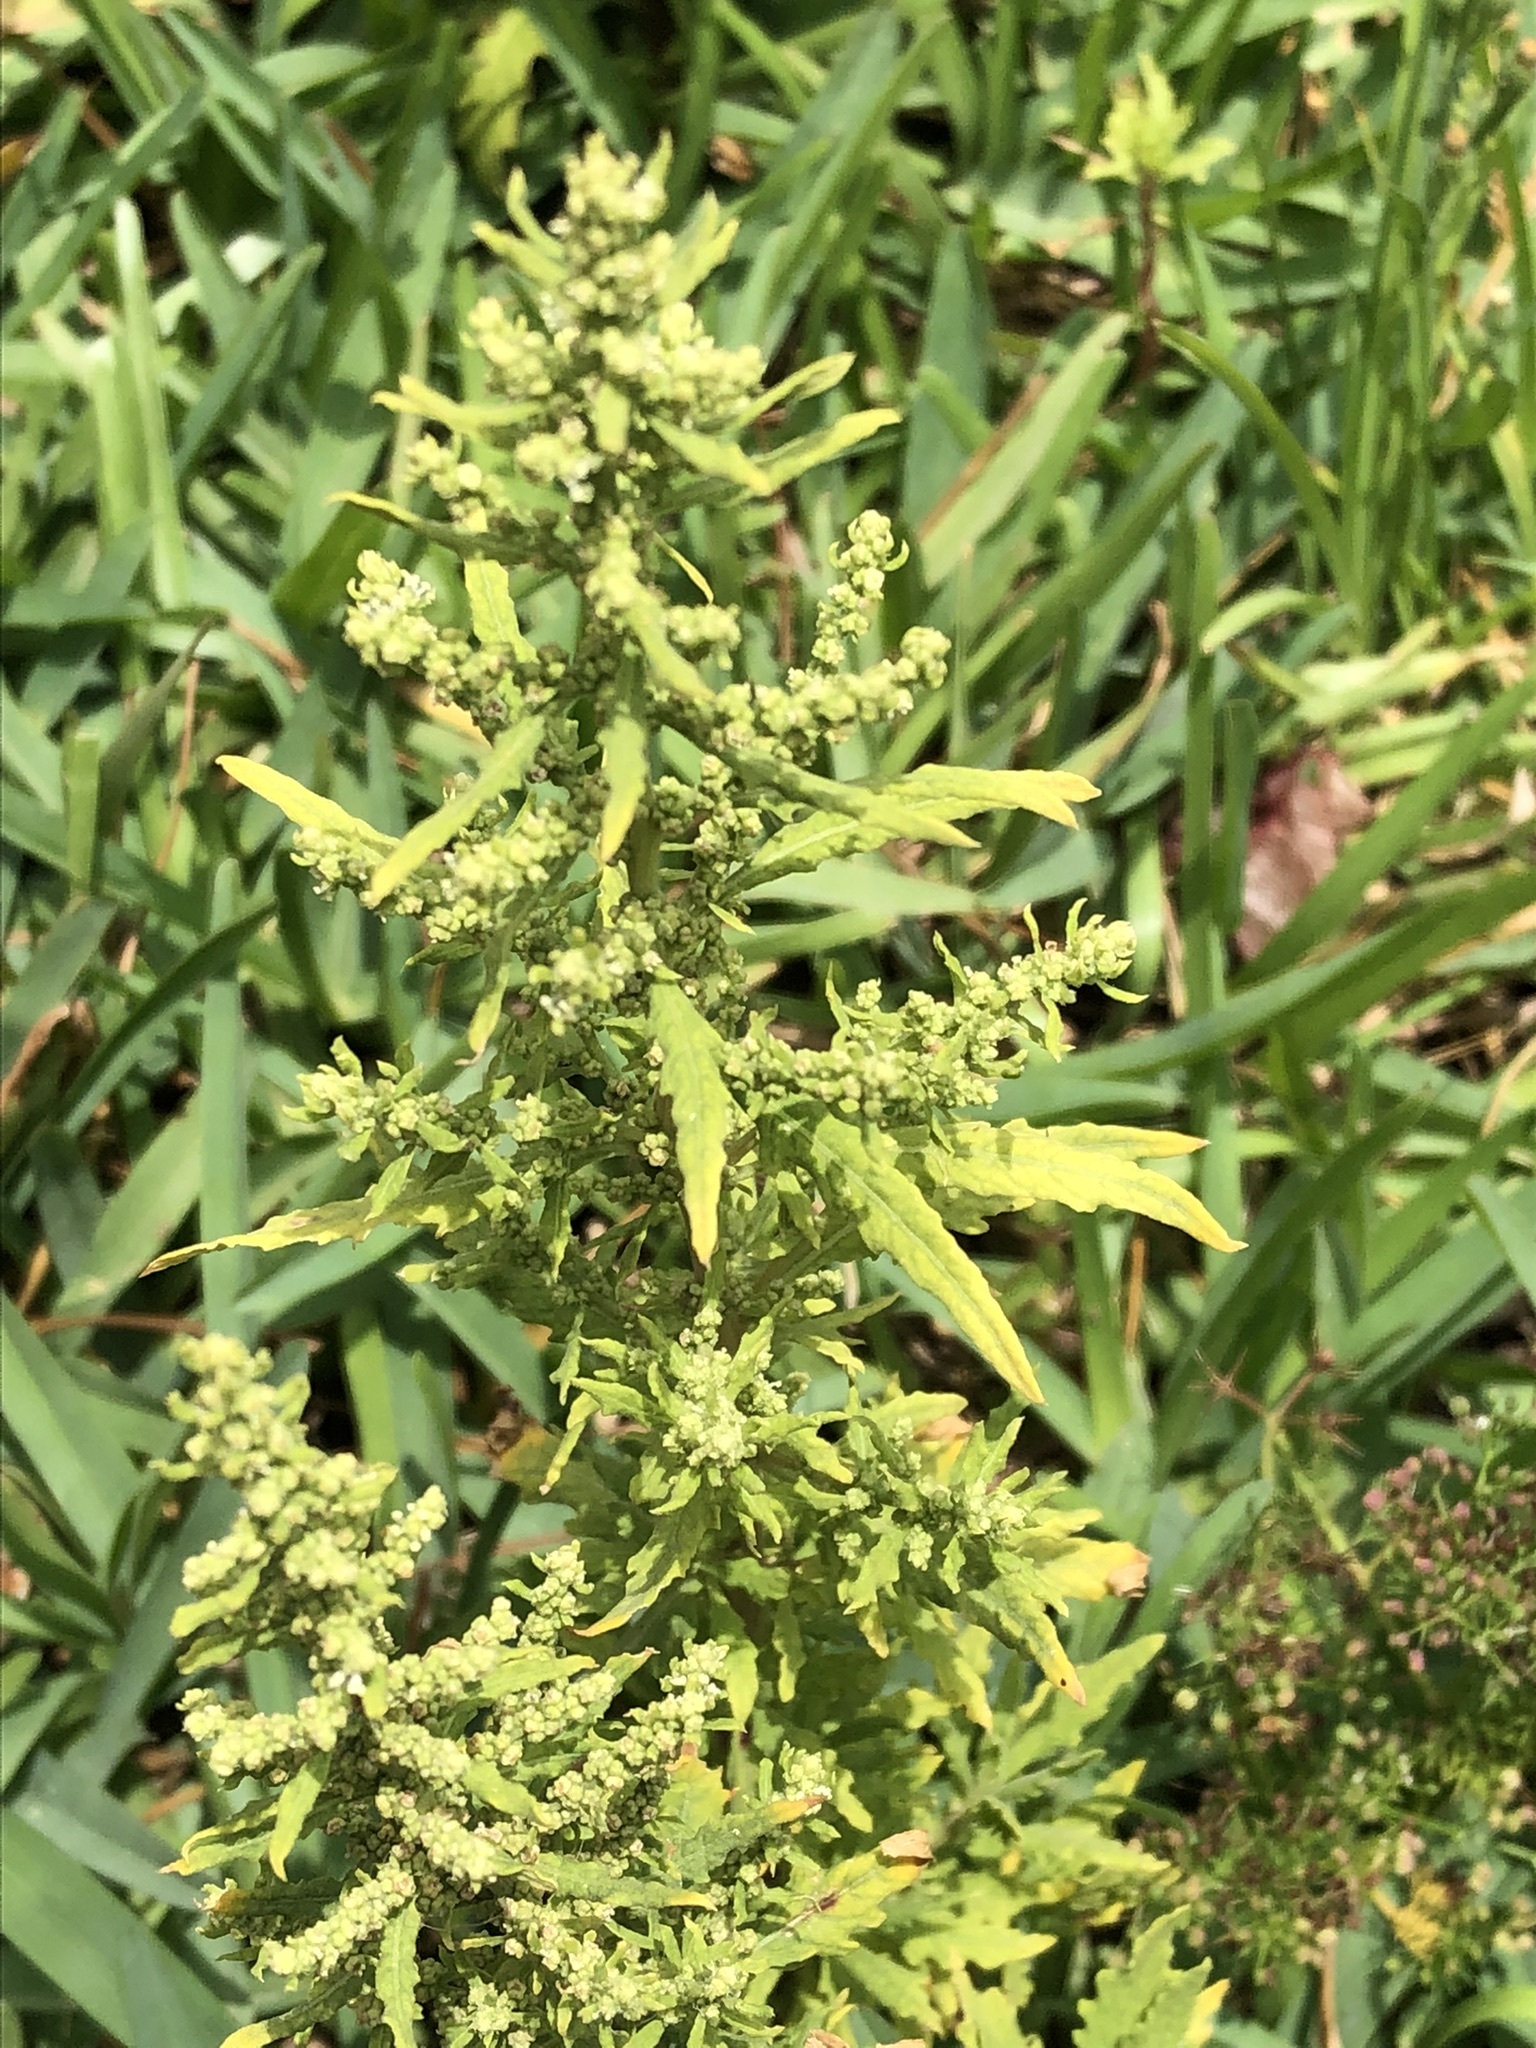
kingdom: Plantae
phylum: Tracheophyta
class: Magnoliopsida
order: Caryophyllales
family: Amaranthaceae
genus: Dysphania
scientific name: Dysphania ambrosioides
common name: Wormseed
